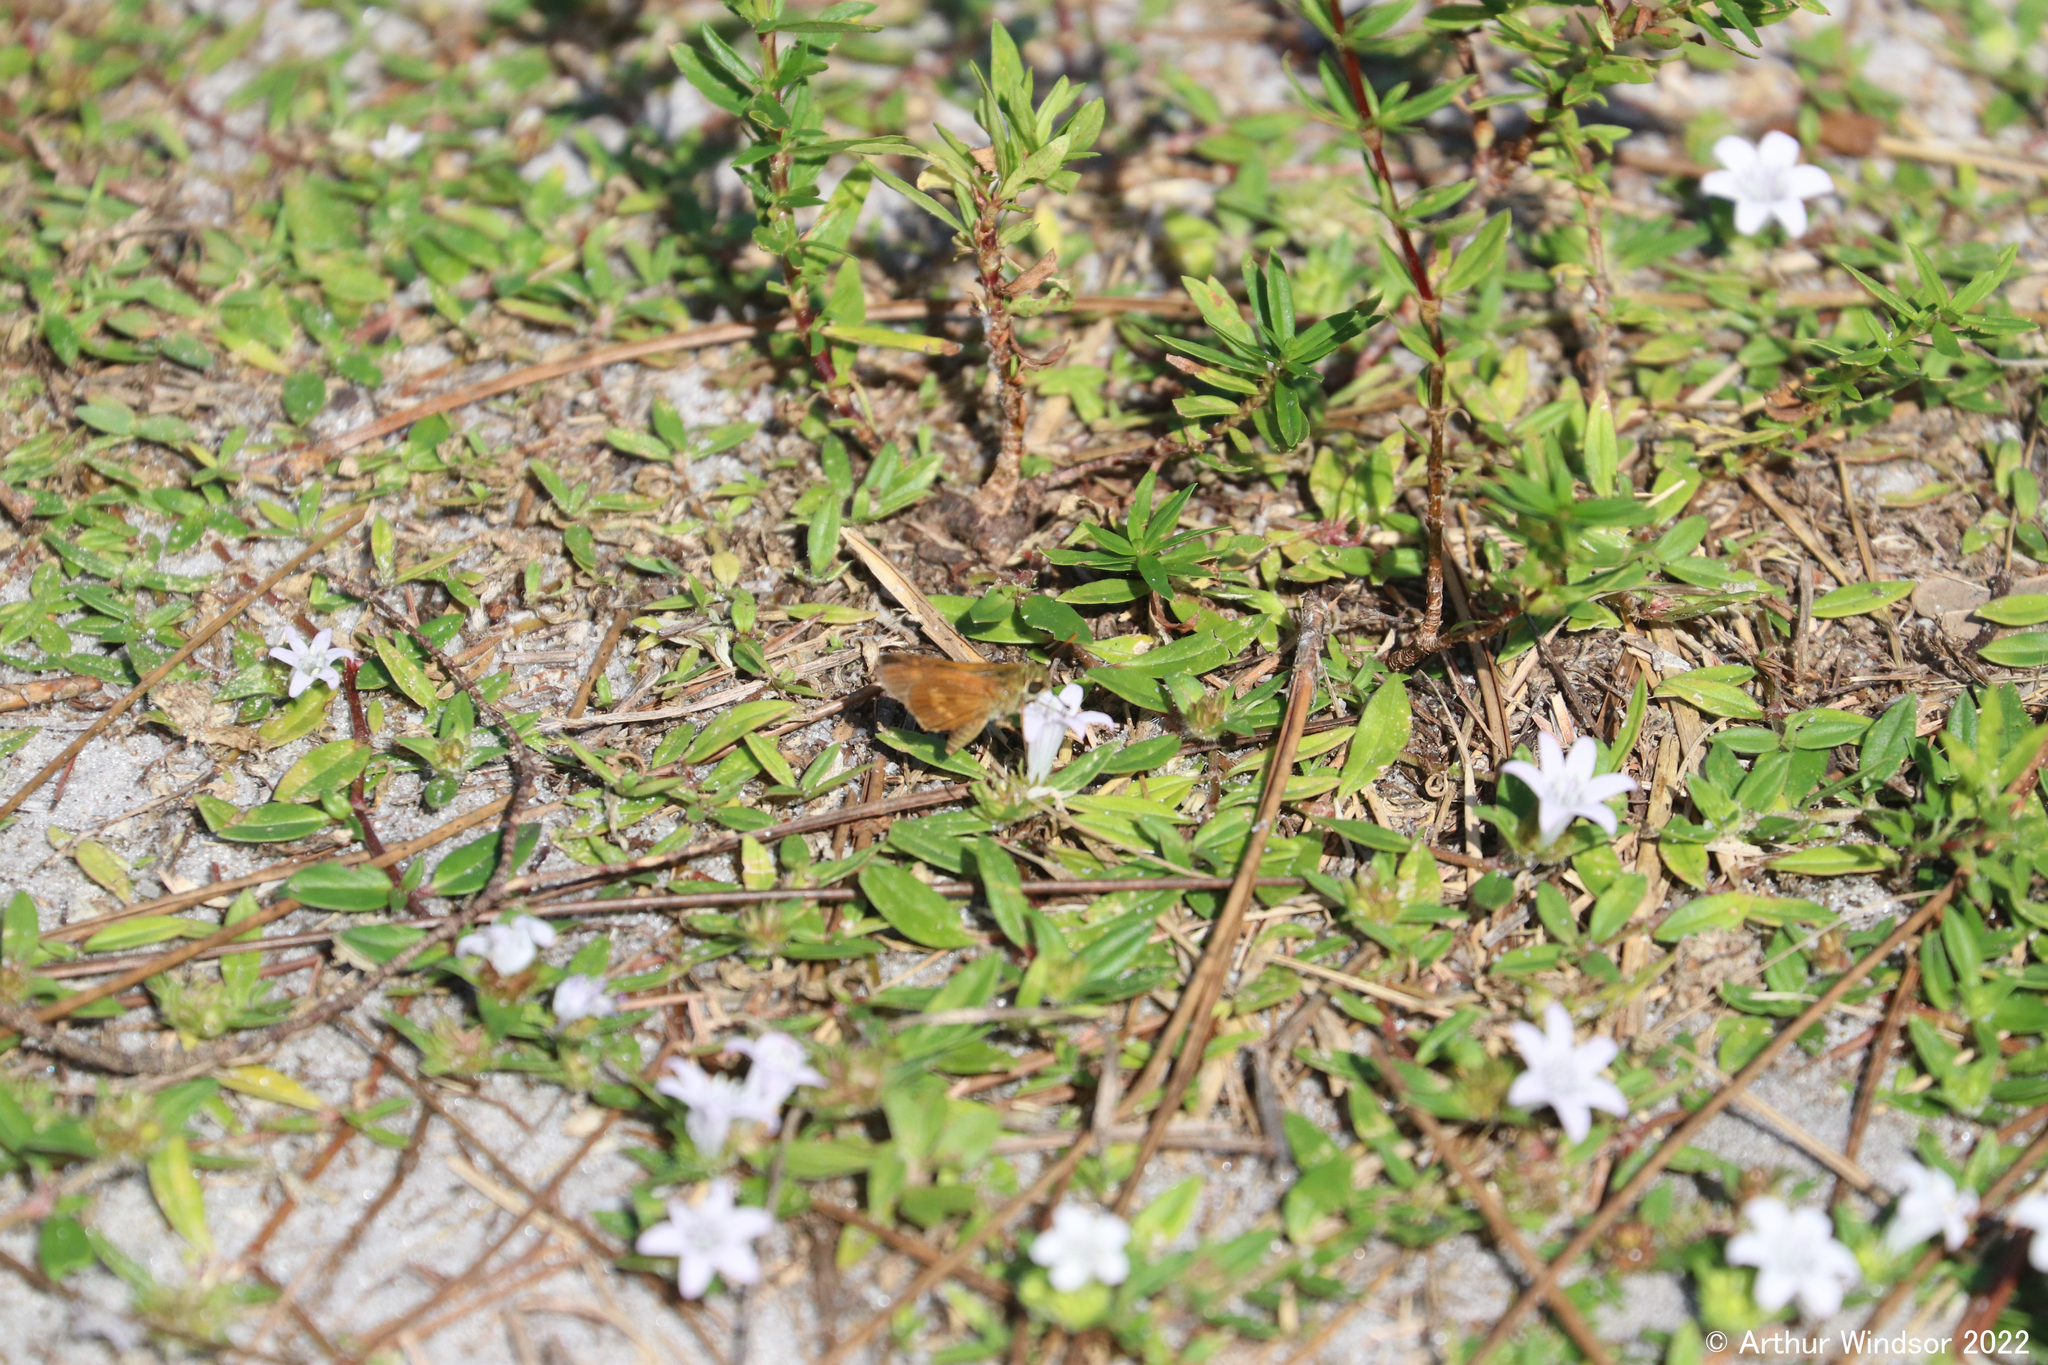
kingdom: Animalia
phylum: Arthropoda
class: Insecta
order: Lepidoptera
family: Hesperiidae
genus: Polites
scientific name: Polites otho
